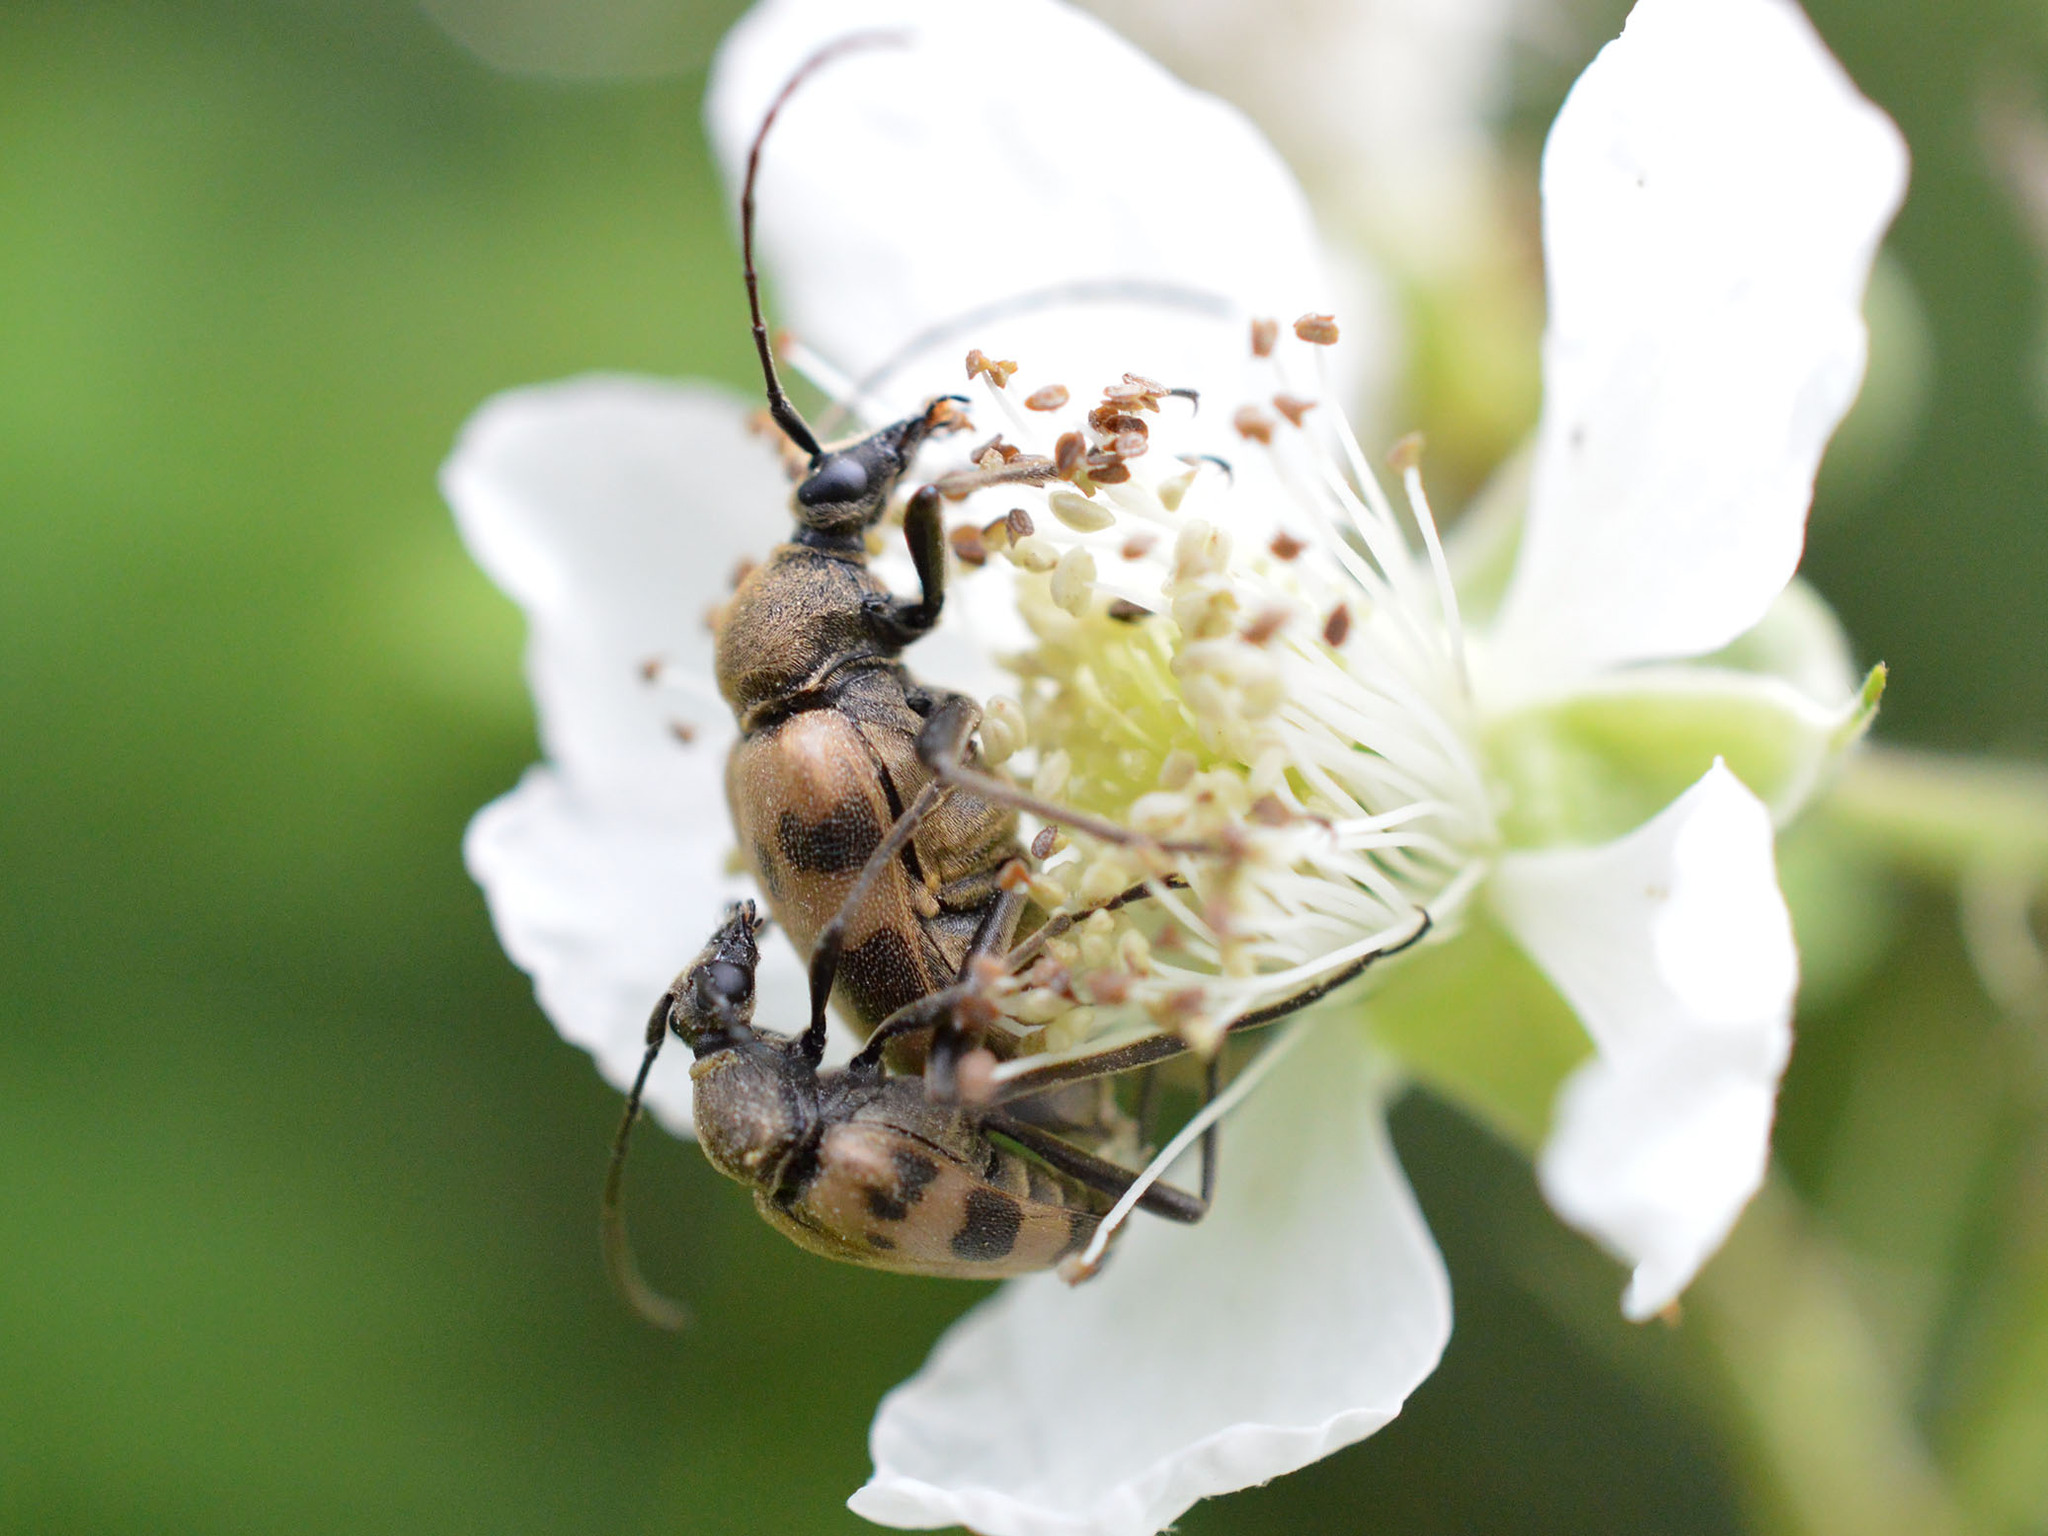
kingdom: Animalia
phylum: Arthropoda
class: Insecta
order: Coleoptera
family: Cerambycidae
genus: Pachytodes
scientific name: Pachytodes cerambyciformis
